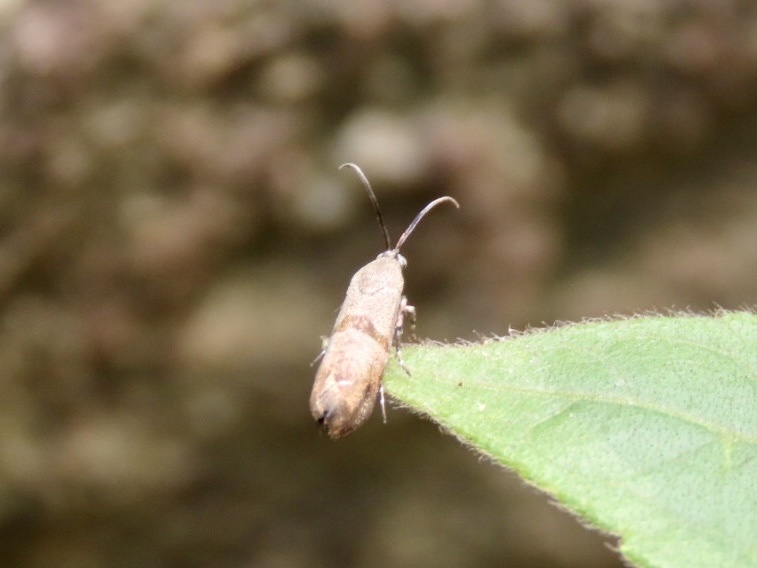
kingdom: Animalia
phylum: Arthropoda
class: Insecta
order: Lepidoptera
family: Brachodidae
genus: Phycodes
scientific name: Phycodes minor
